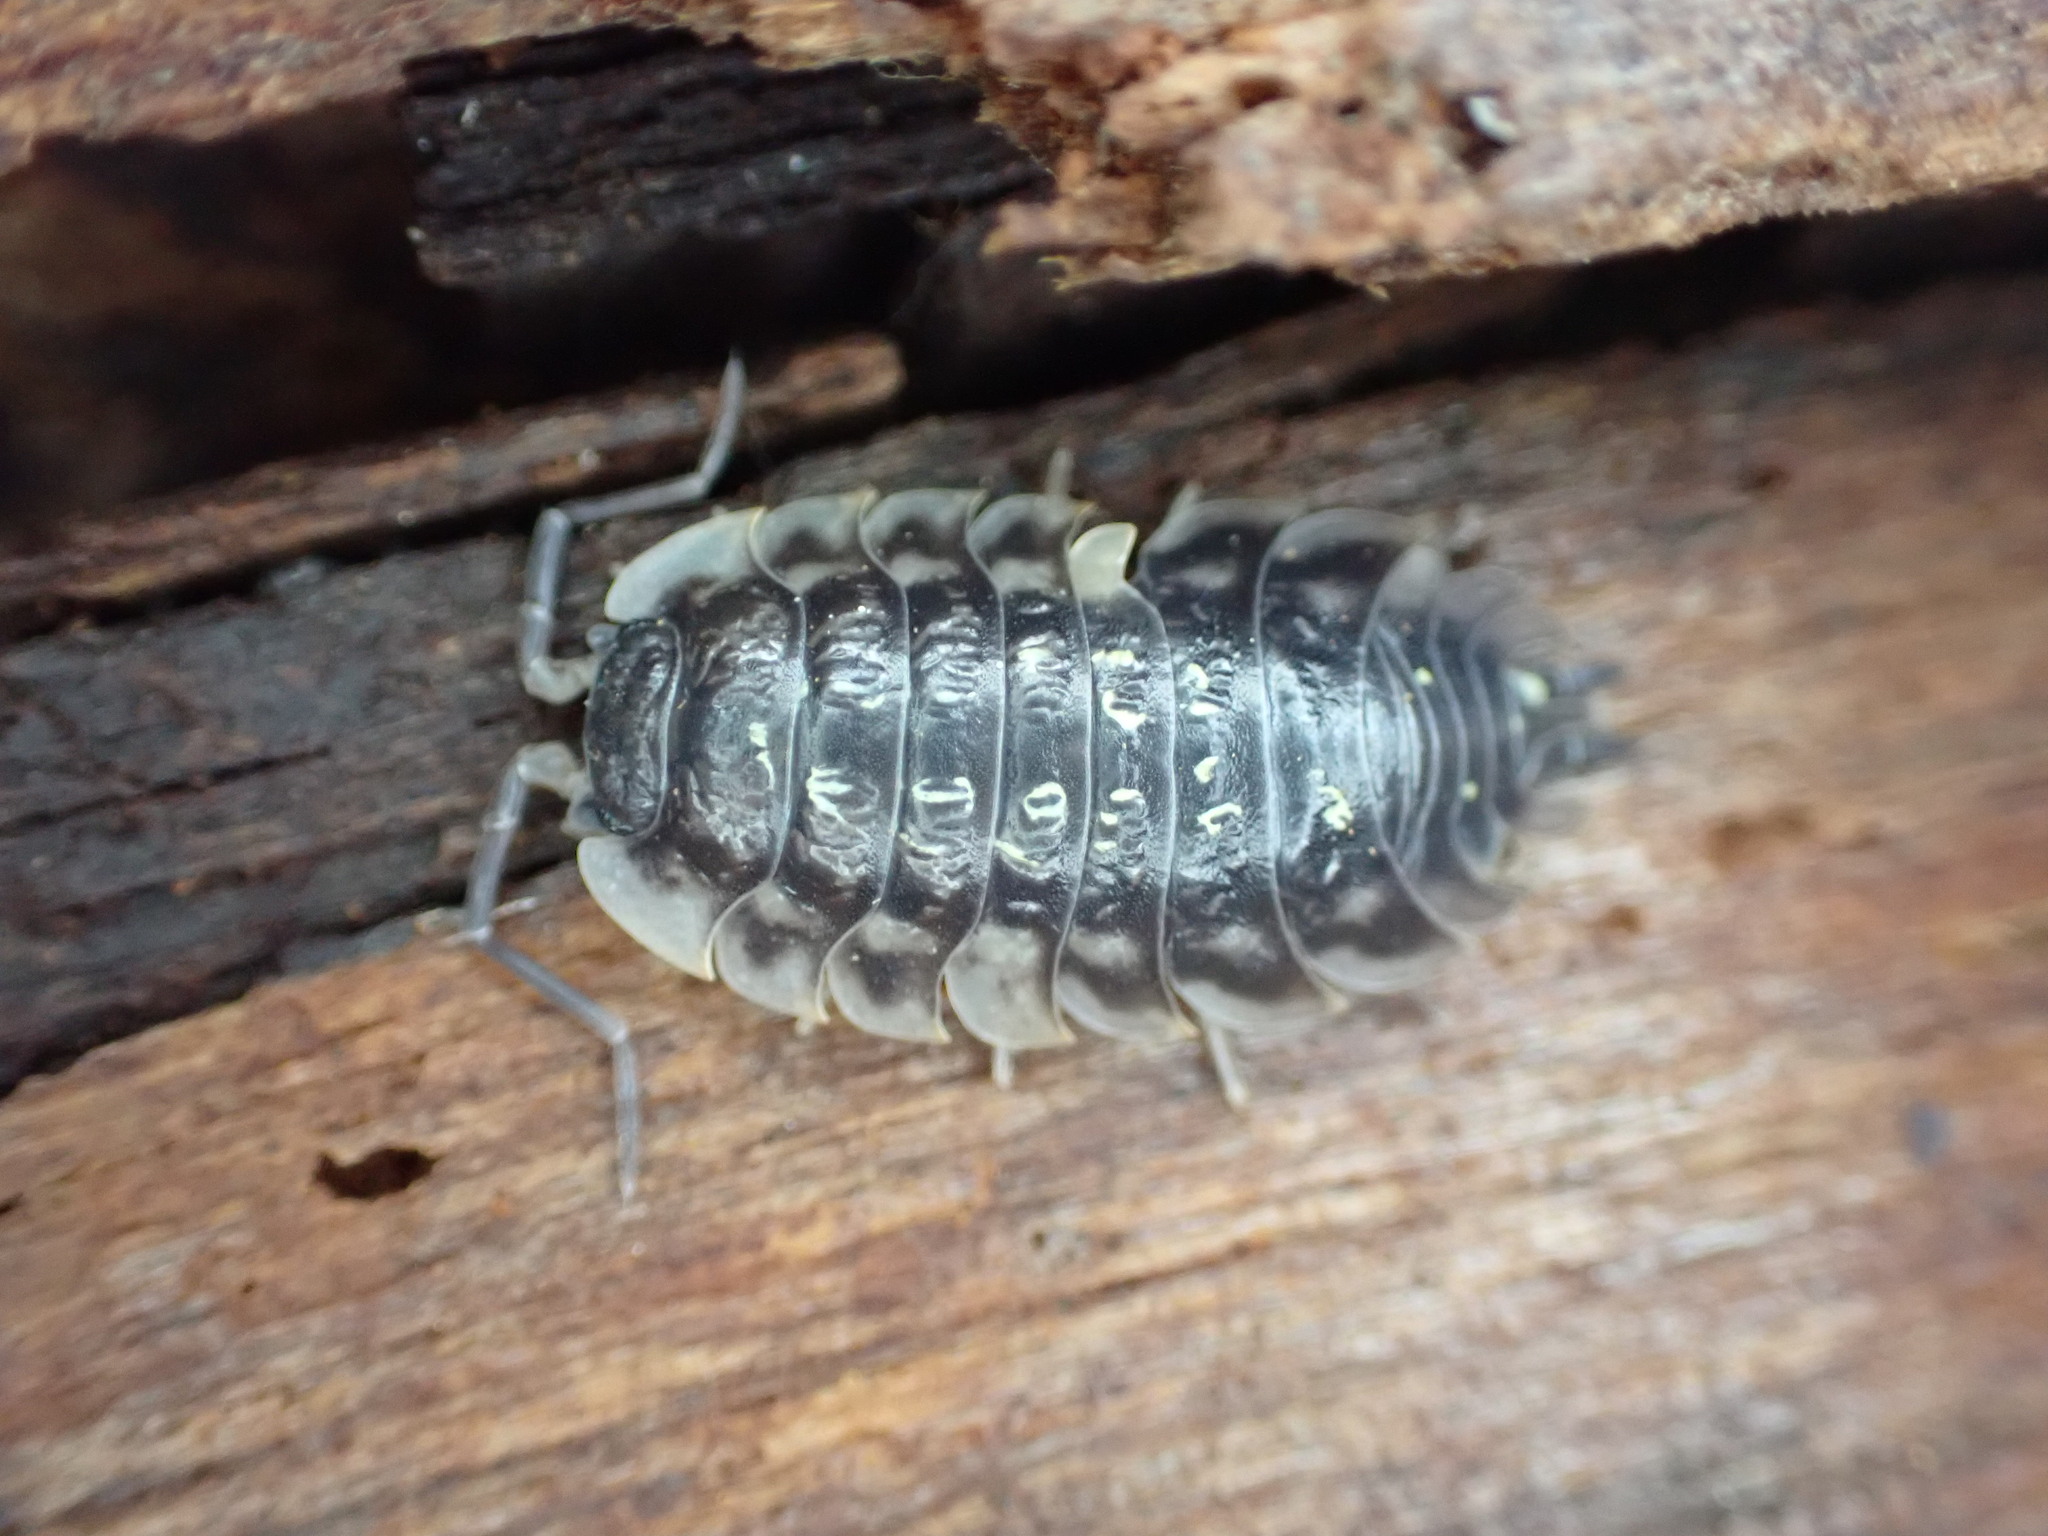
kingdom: Animalia
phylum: Arthropoda
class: Malacostraca
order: Isopoda
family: Oniscidae
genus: Oniscus
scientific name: Oniscus asellus
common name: Common shiny woodlouse
